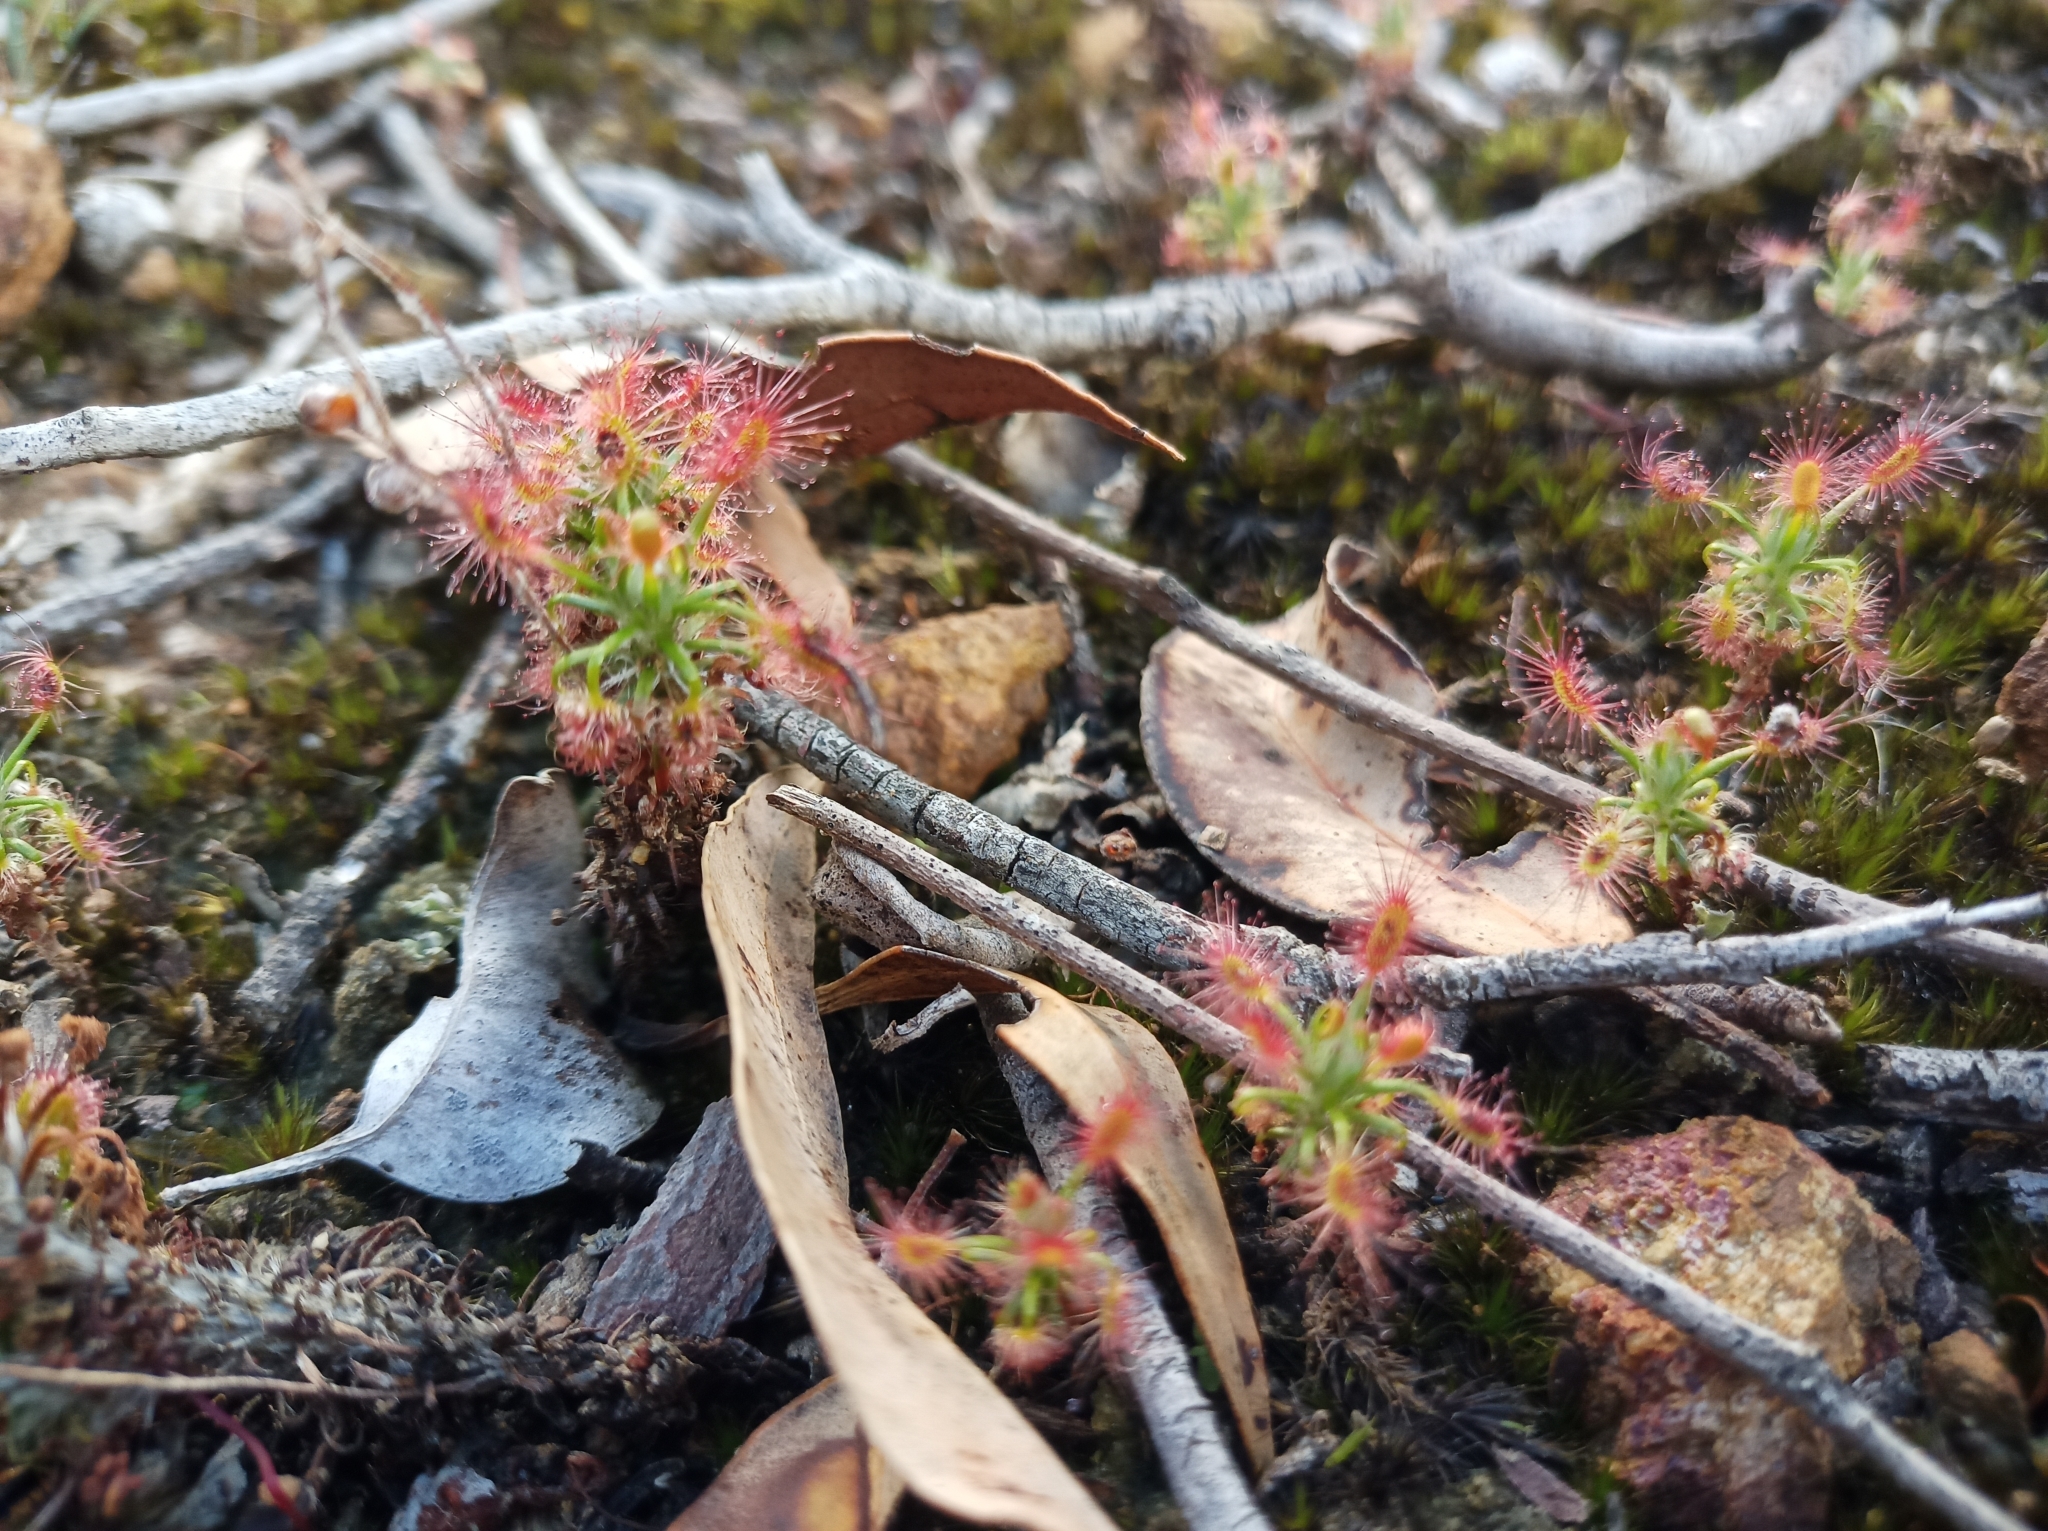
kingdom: Plantae
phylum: Tracheophyta
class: Magnoliopsida
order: Caryophyllales
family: Droseraceae
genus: Drosera
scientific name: Drosera lasiantha
